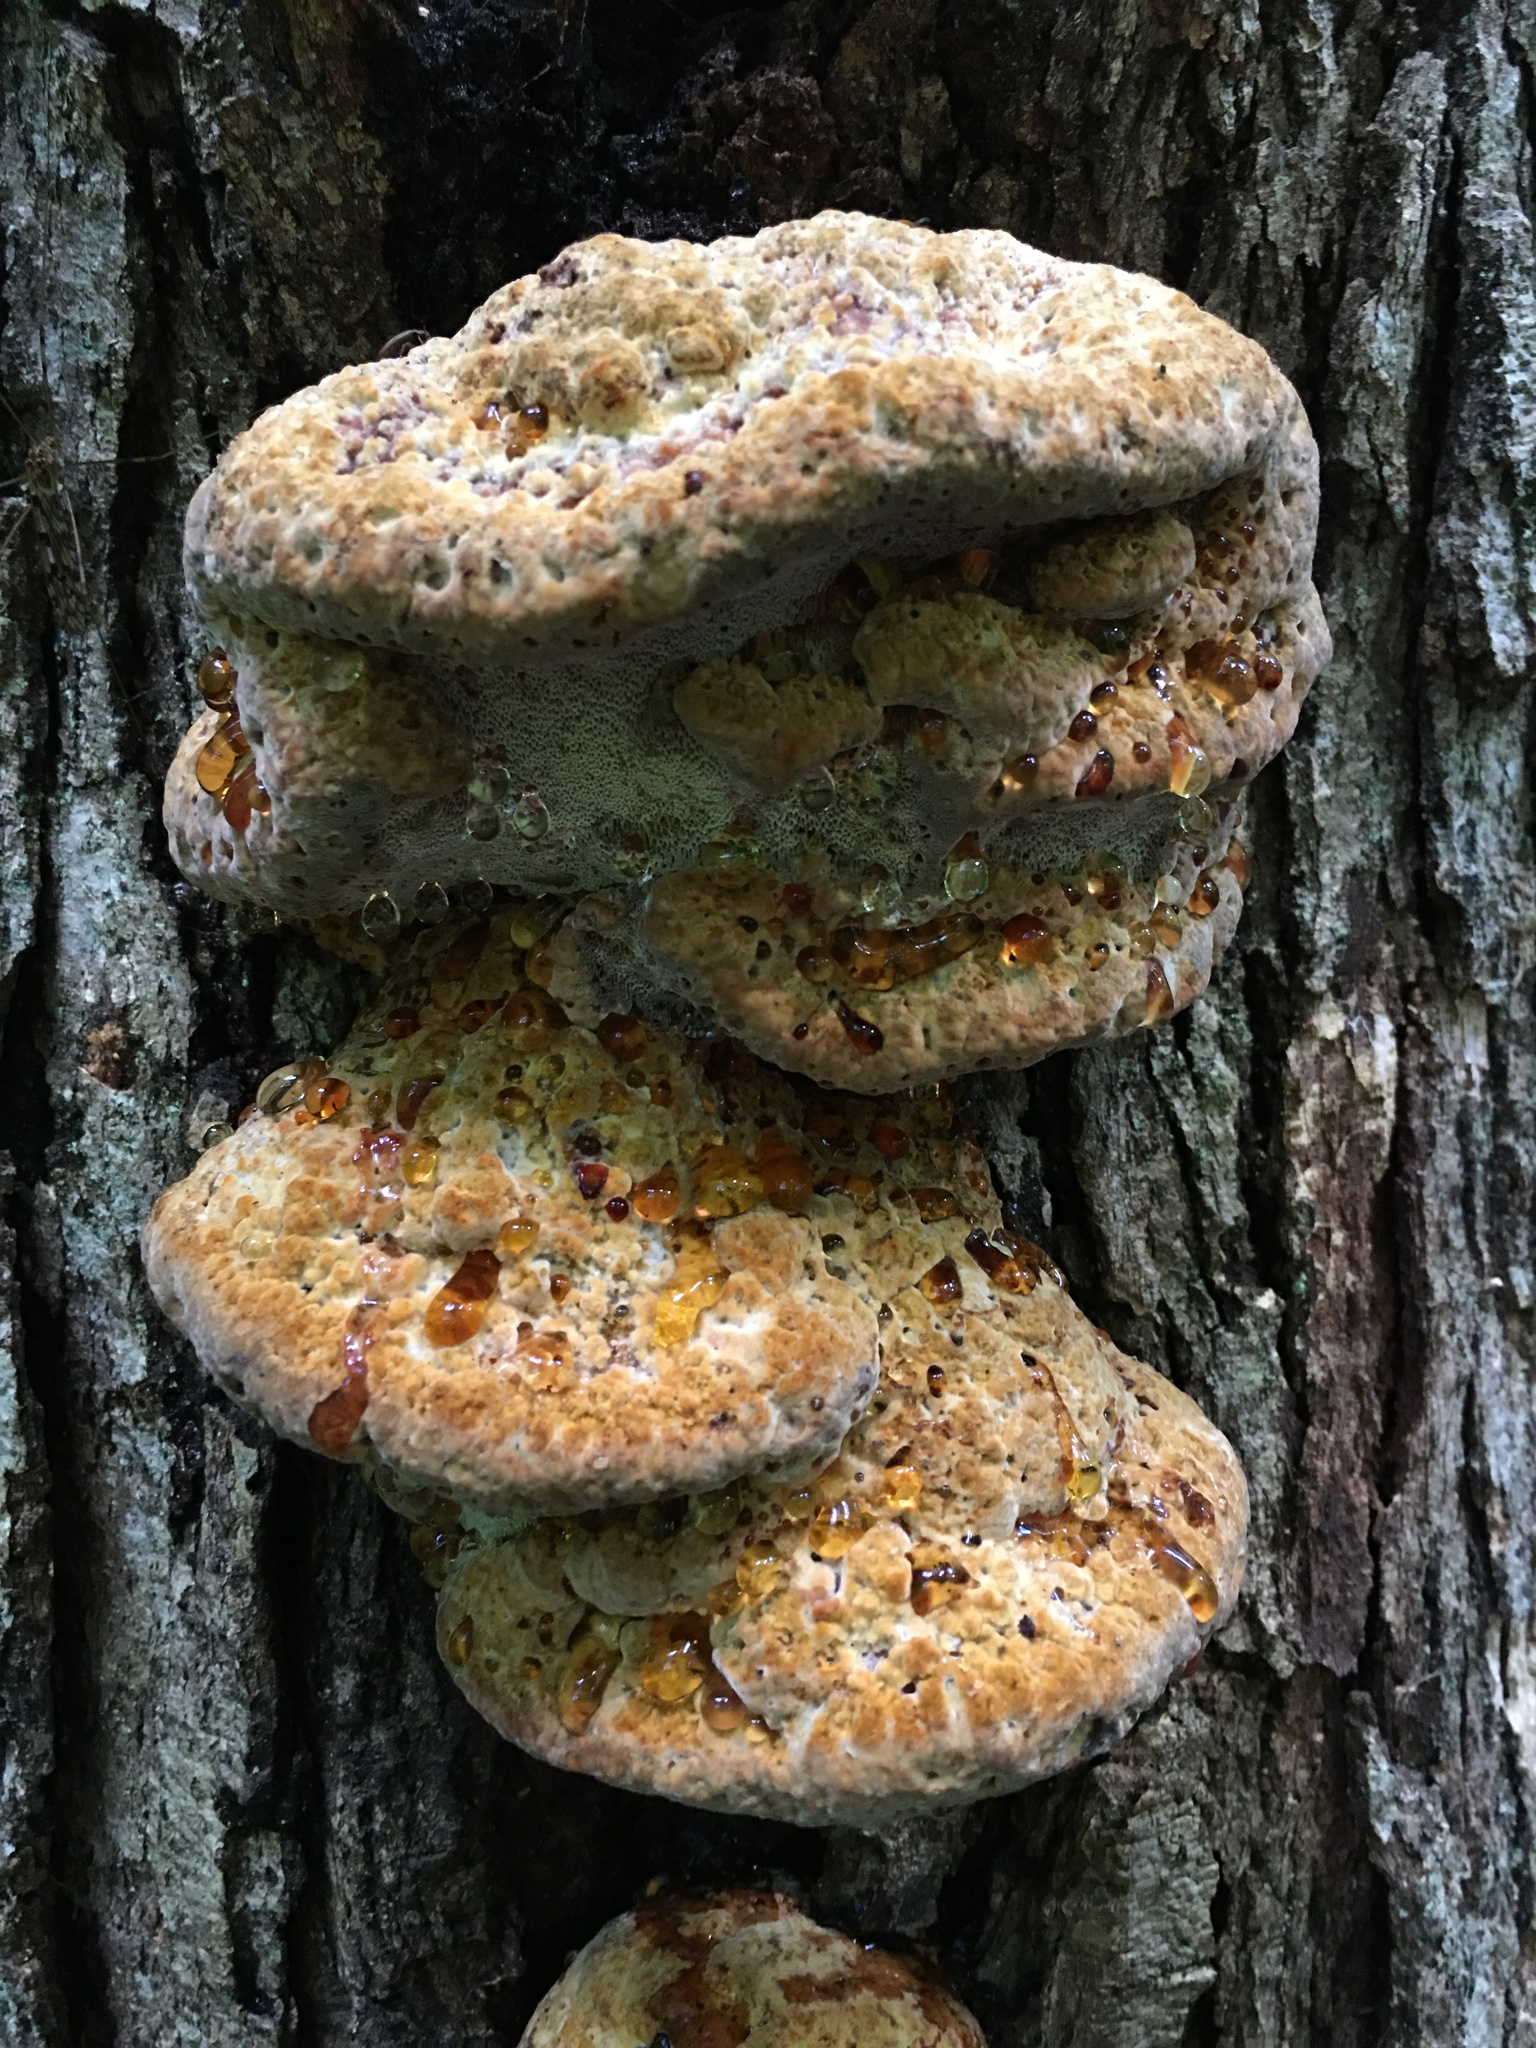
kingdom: Fungi
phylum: Basidiomycota
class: Agaricomycetes
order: Hymenochaetales
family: Hymenochaetaceae
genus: Pseudoinonotus
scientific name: Pseudoinonotus dryadeus
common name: Oak bracket
